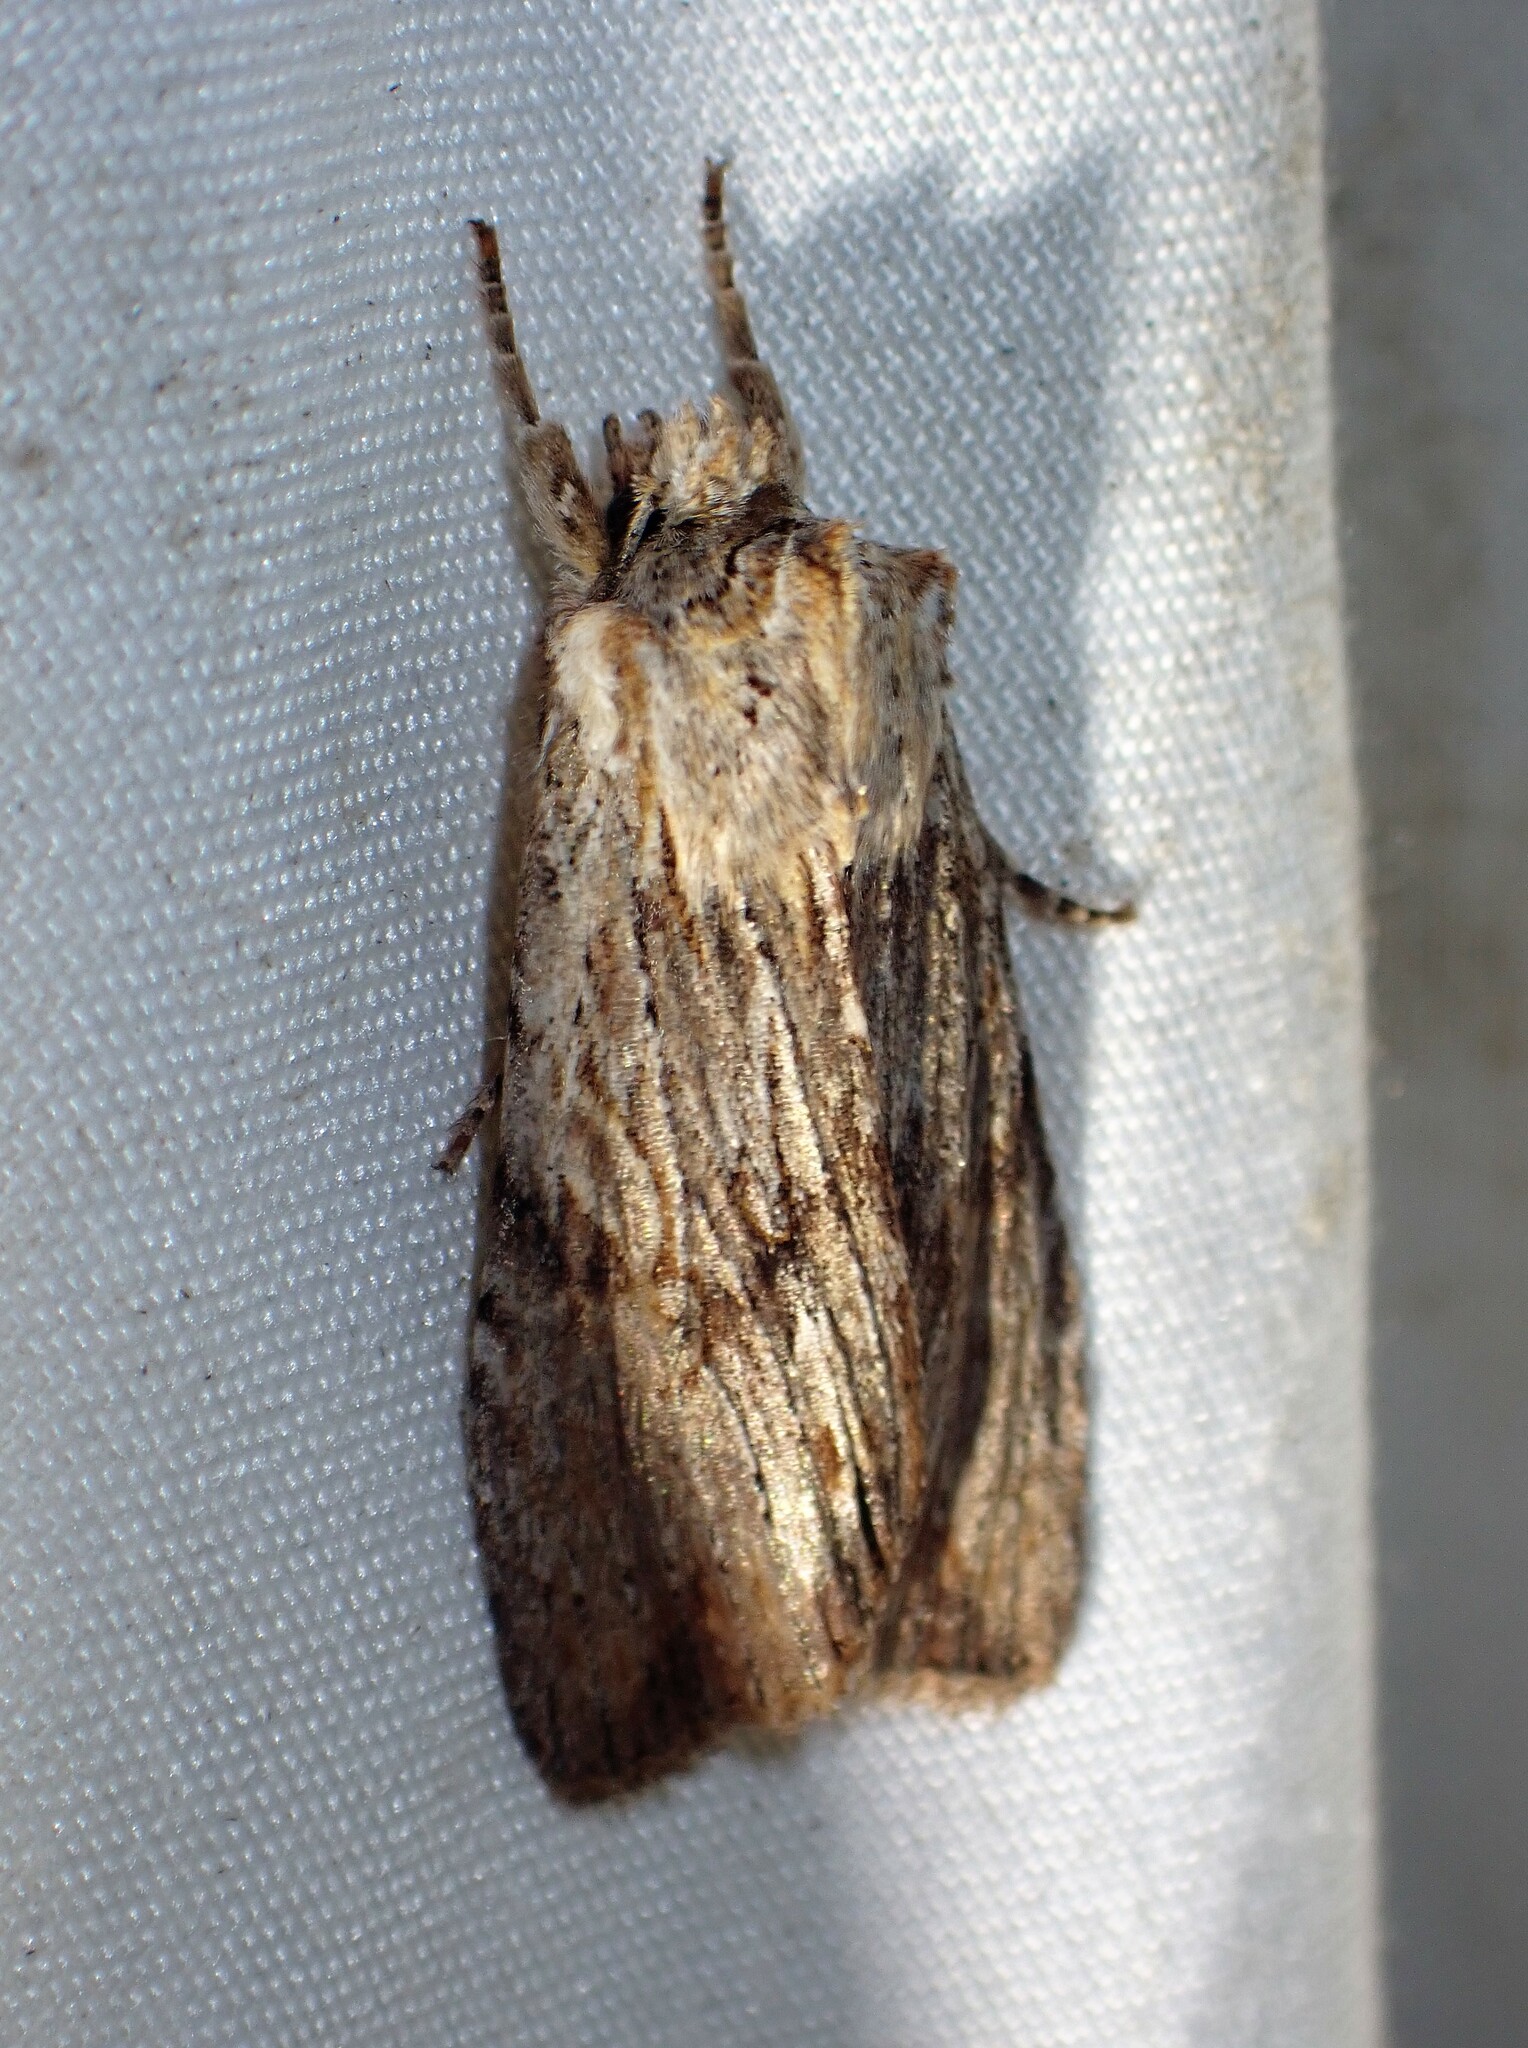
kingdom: Animalia
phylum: Arthropoda
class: Insecta
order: Lepidoptera
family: Noctuidae
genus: Lithophane
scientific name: Lithophane petulca
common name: Wanton pinion
